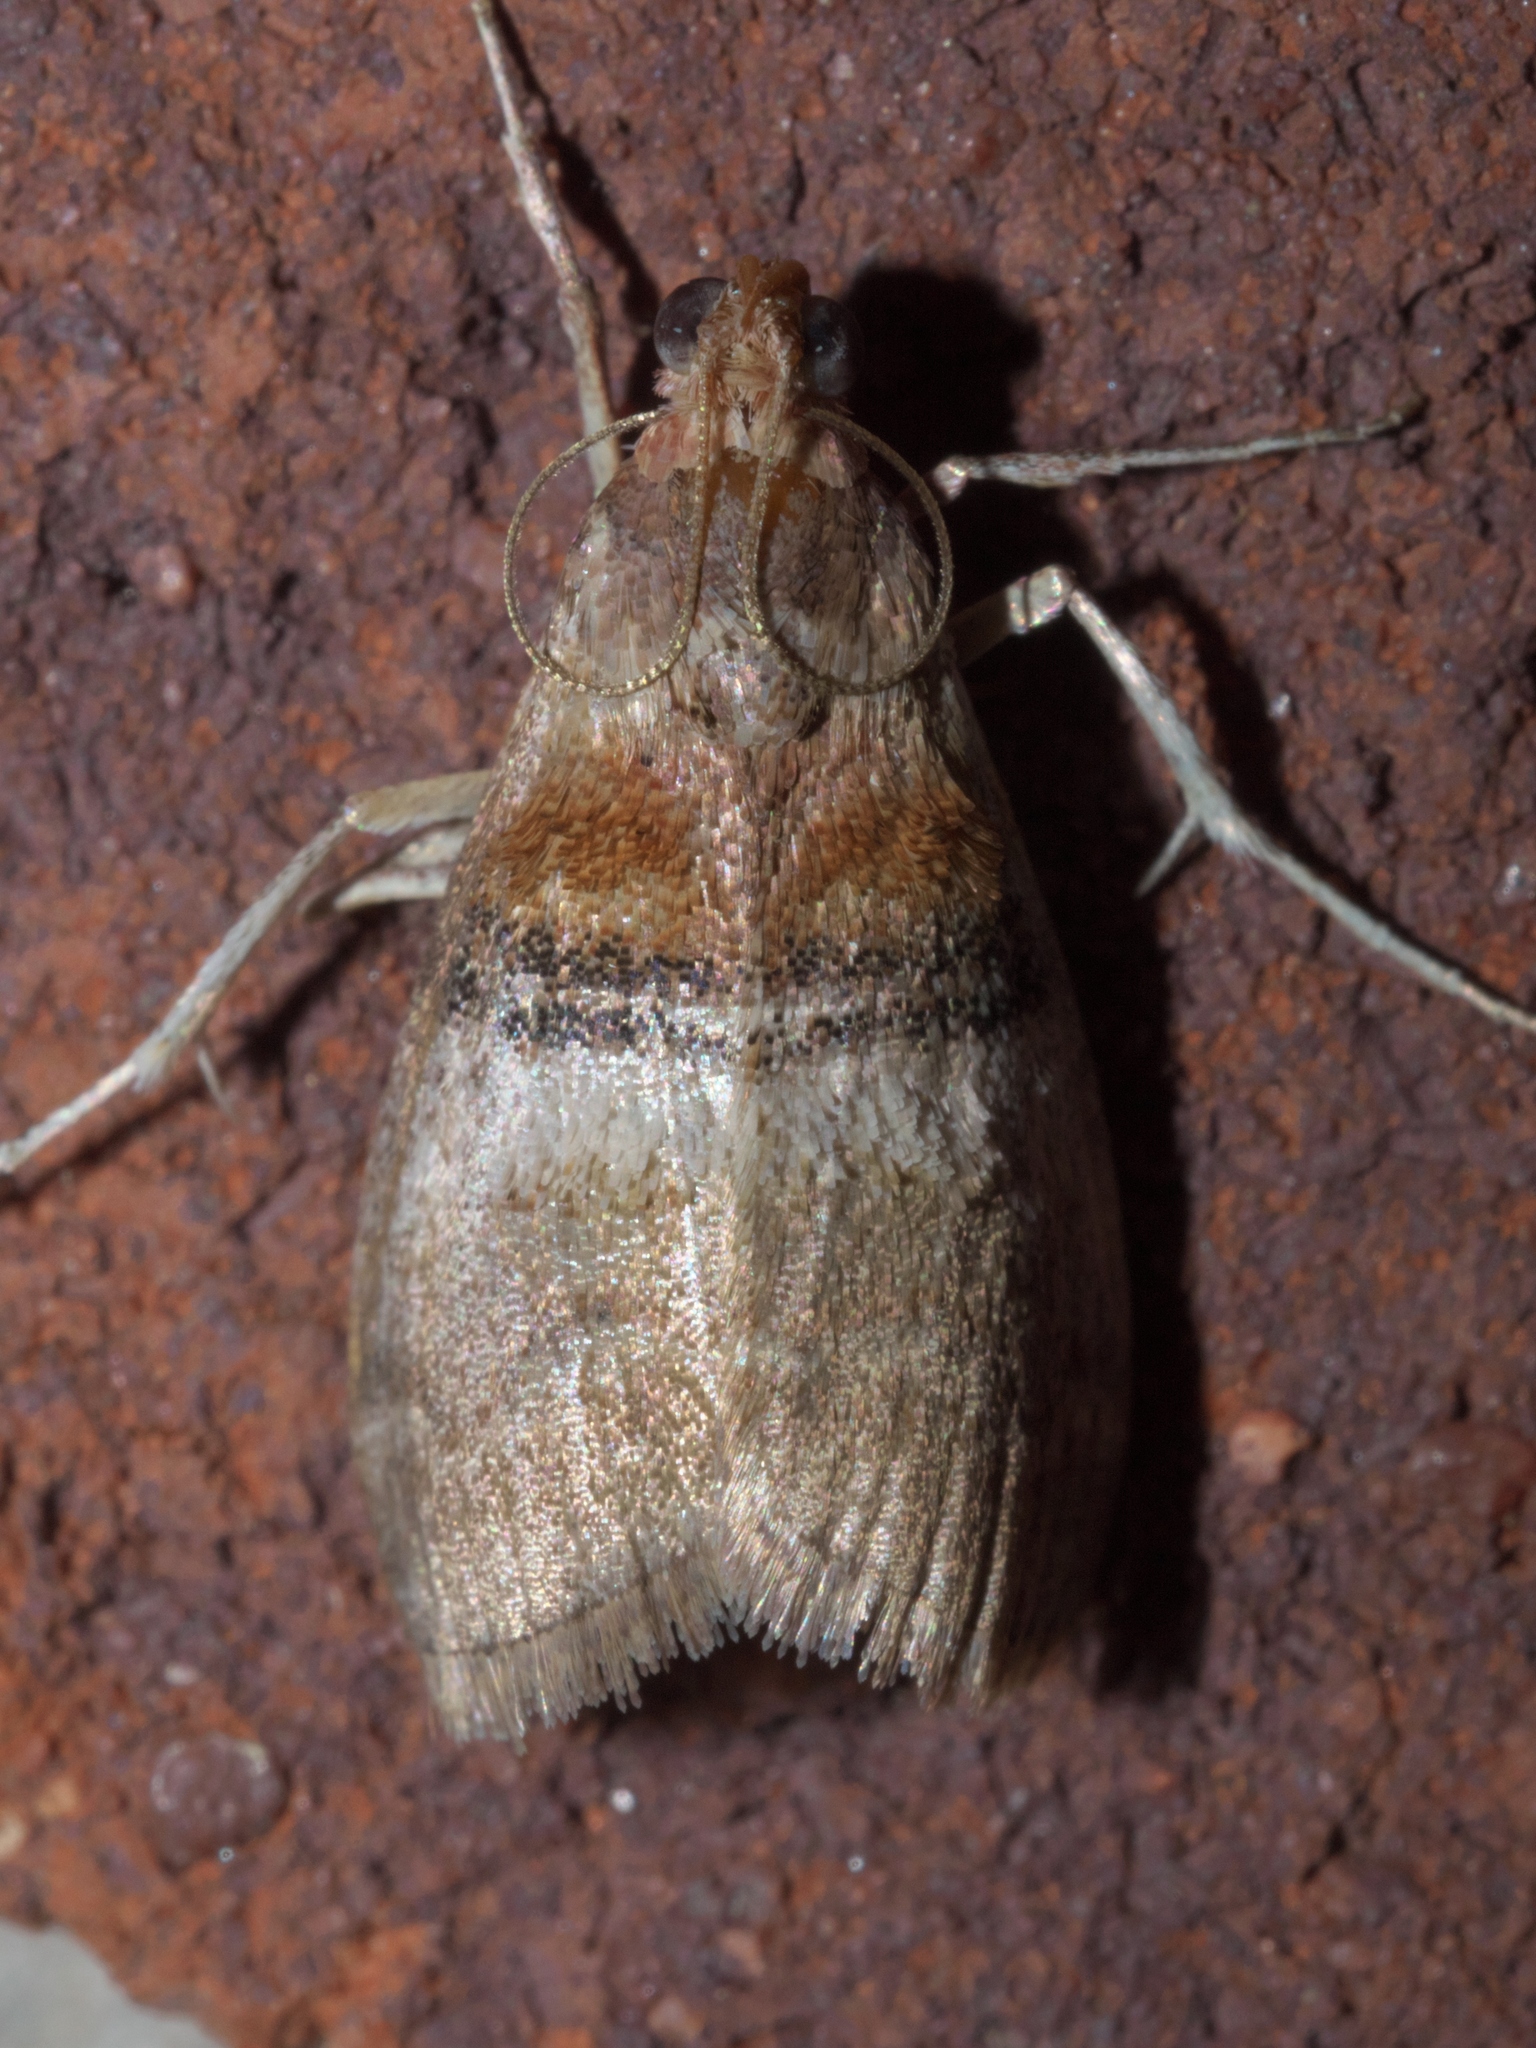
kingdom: Animalia
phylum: Arthropoda
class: Insecta
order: Lepidoptera
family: Pyralidae
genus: Pococera
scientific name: Pococera militella
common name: Sycamore webworm moth
